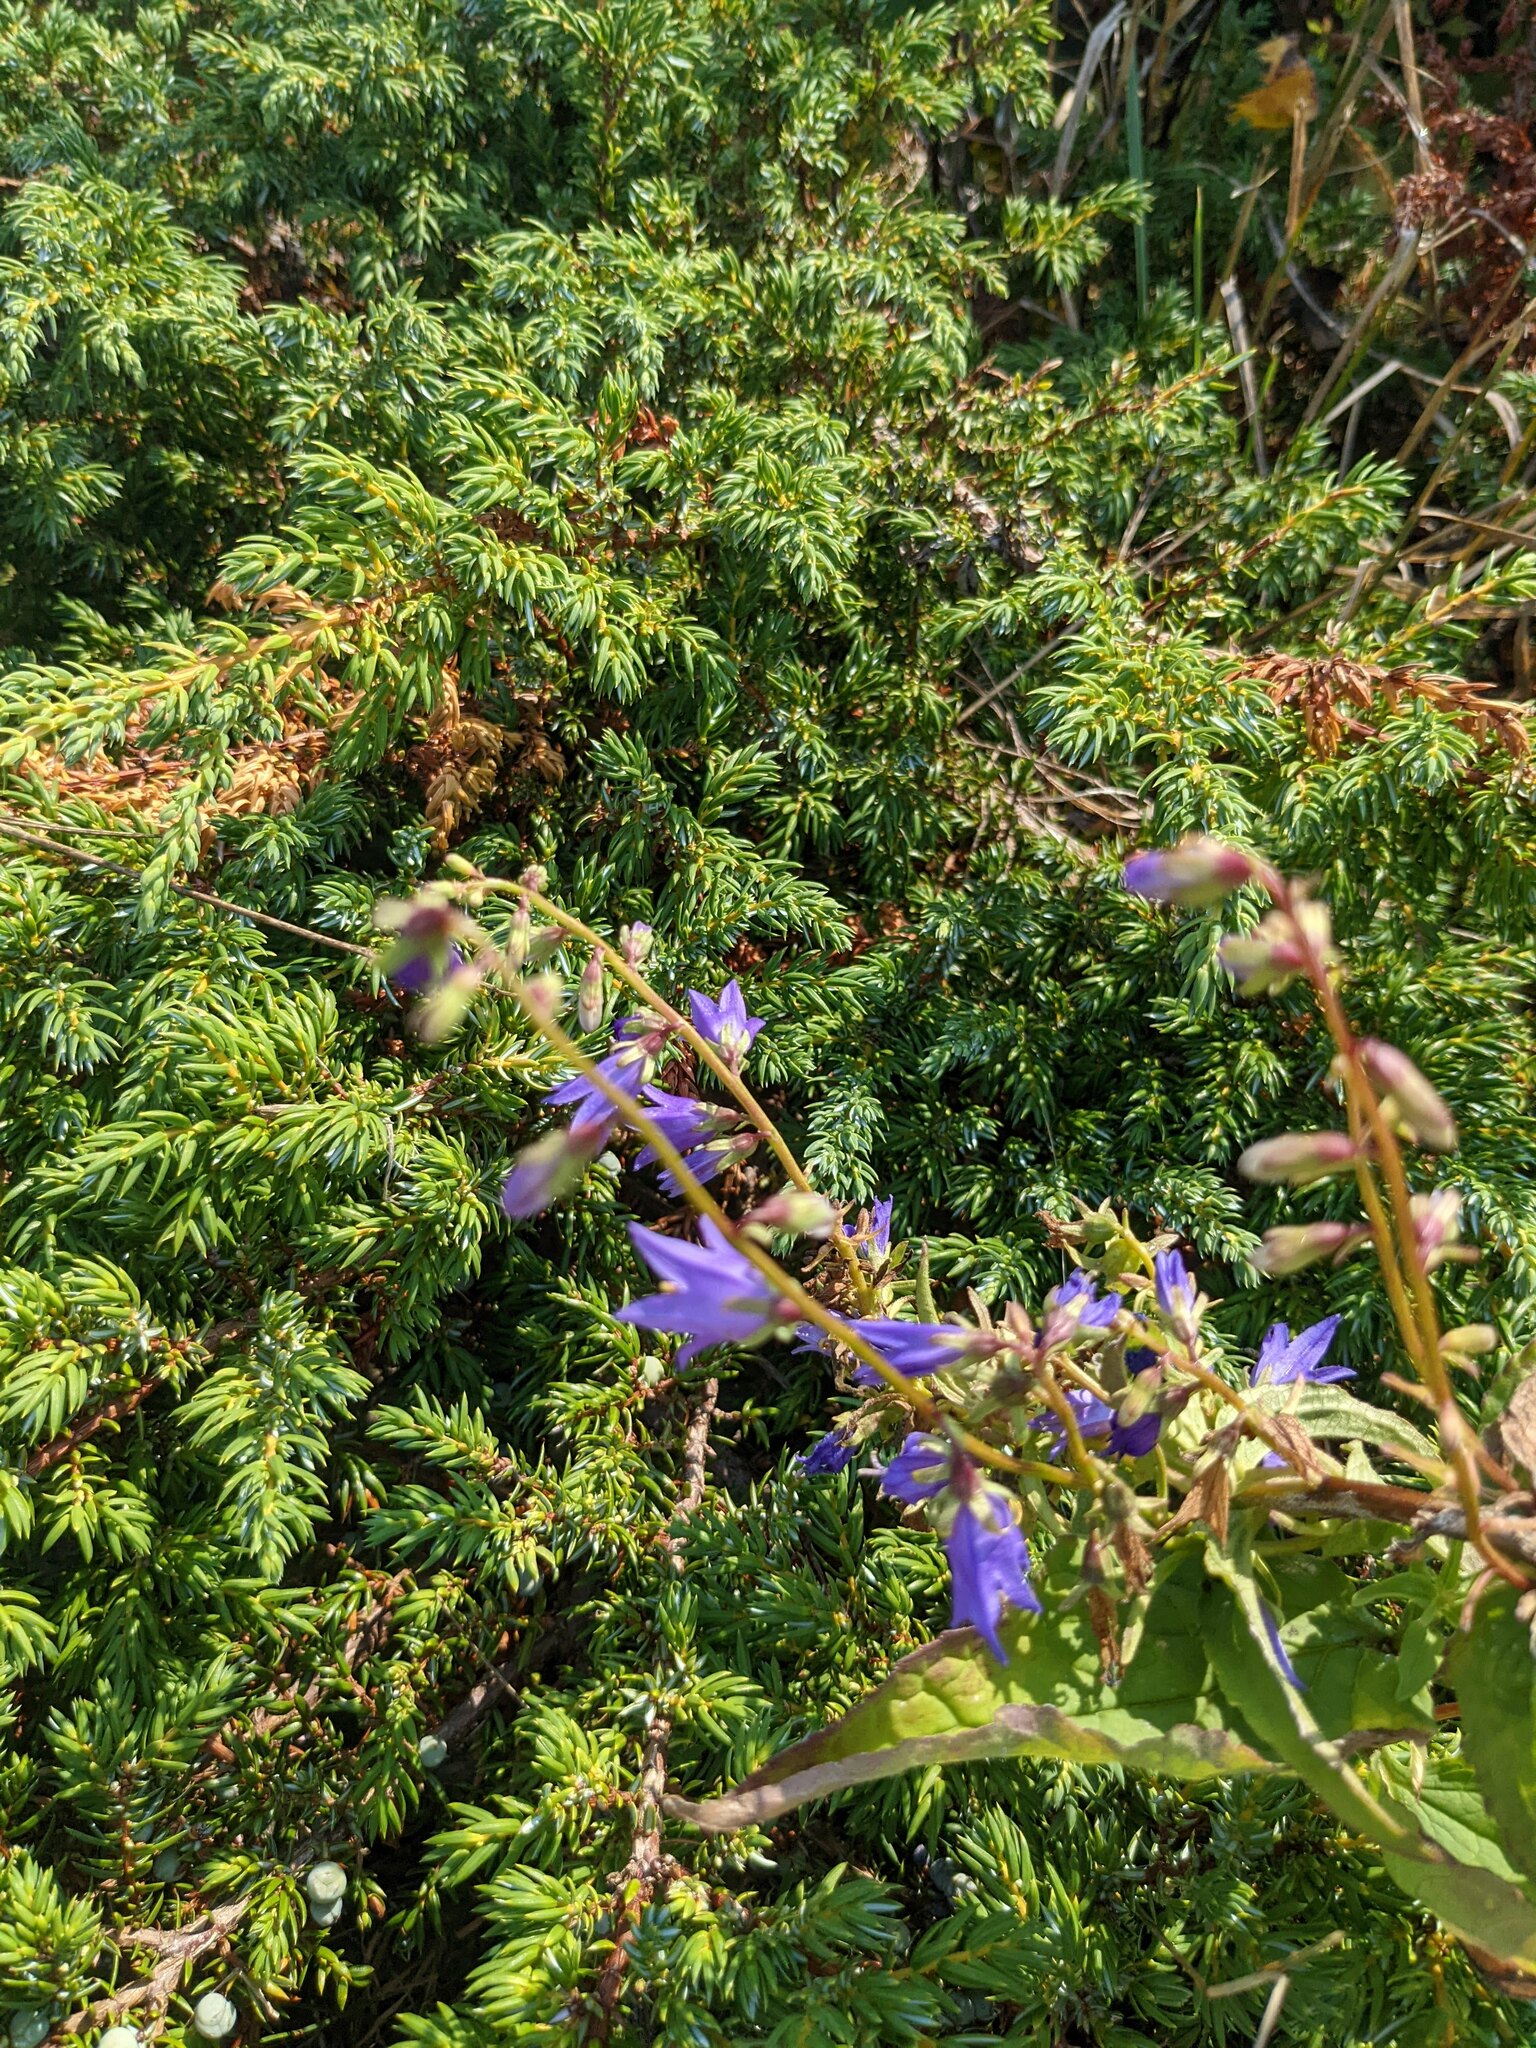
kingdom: Plantae
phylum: Tracheophyta
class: Magnoliopsida
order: Asterales
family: Campanulaceae
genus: Campanula
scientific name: Campanula rapunculoides
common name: Creeping bellflower
